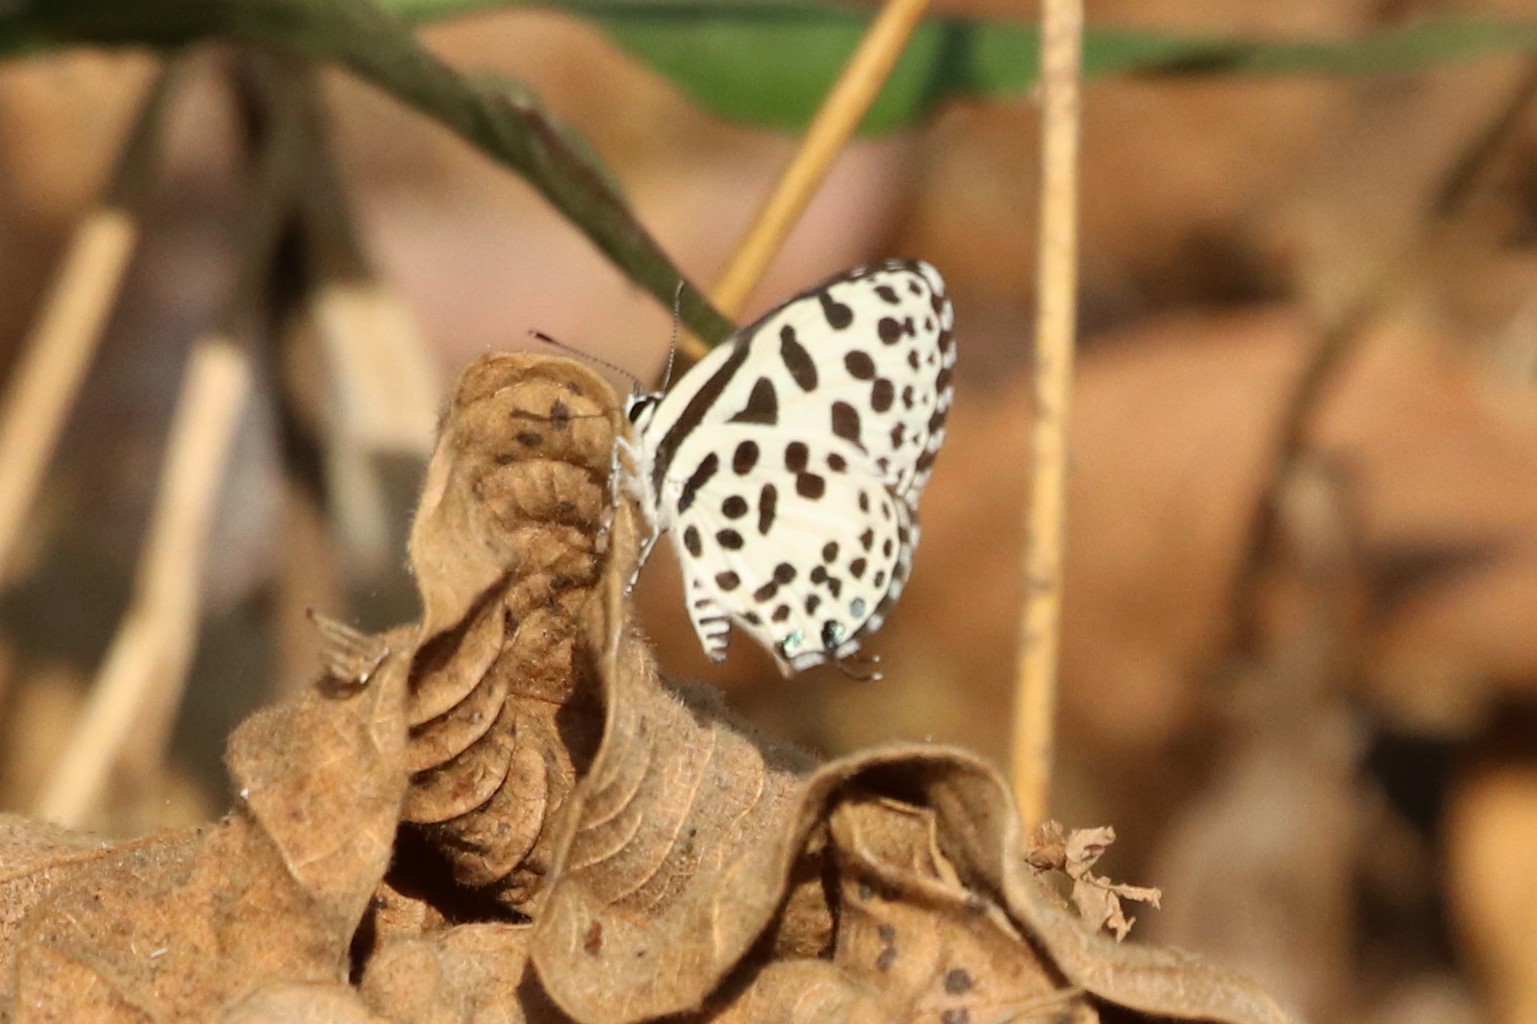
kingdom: Animalia
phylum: Arthropoda
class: Insecta
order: Lepidoptera
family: Lycaenidae
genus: Castalius
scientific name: Castalius rosimon
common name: Common pierrot
